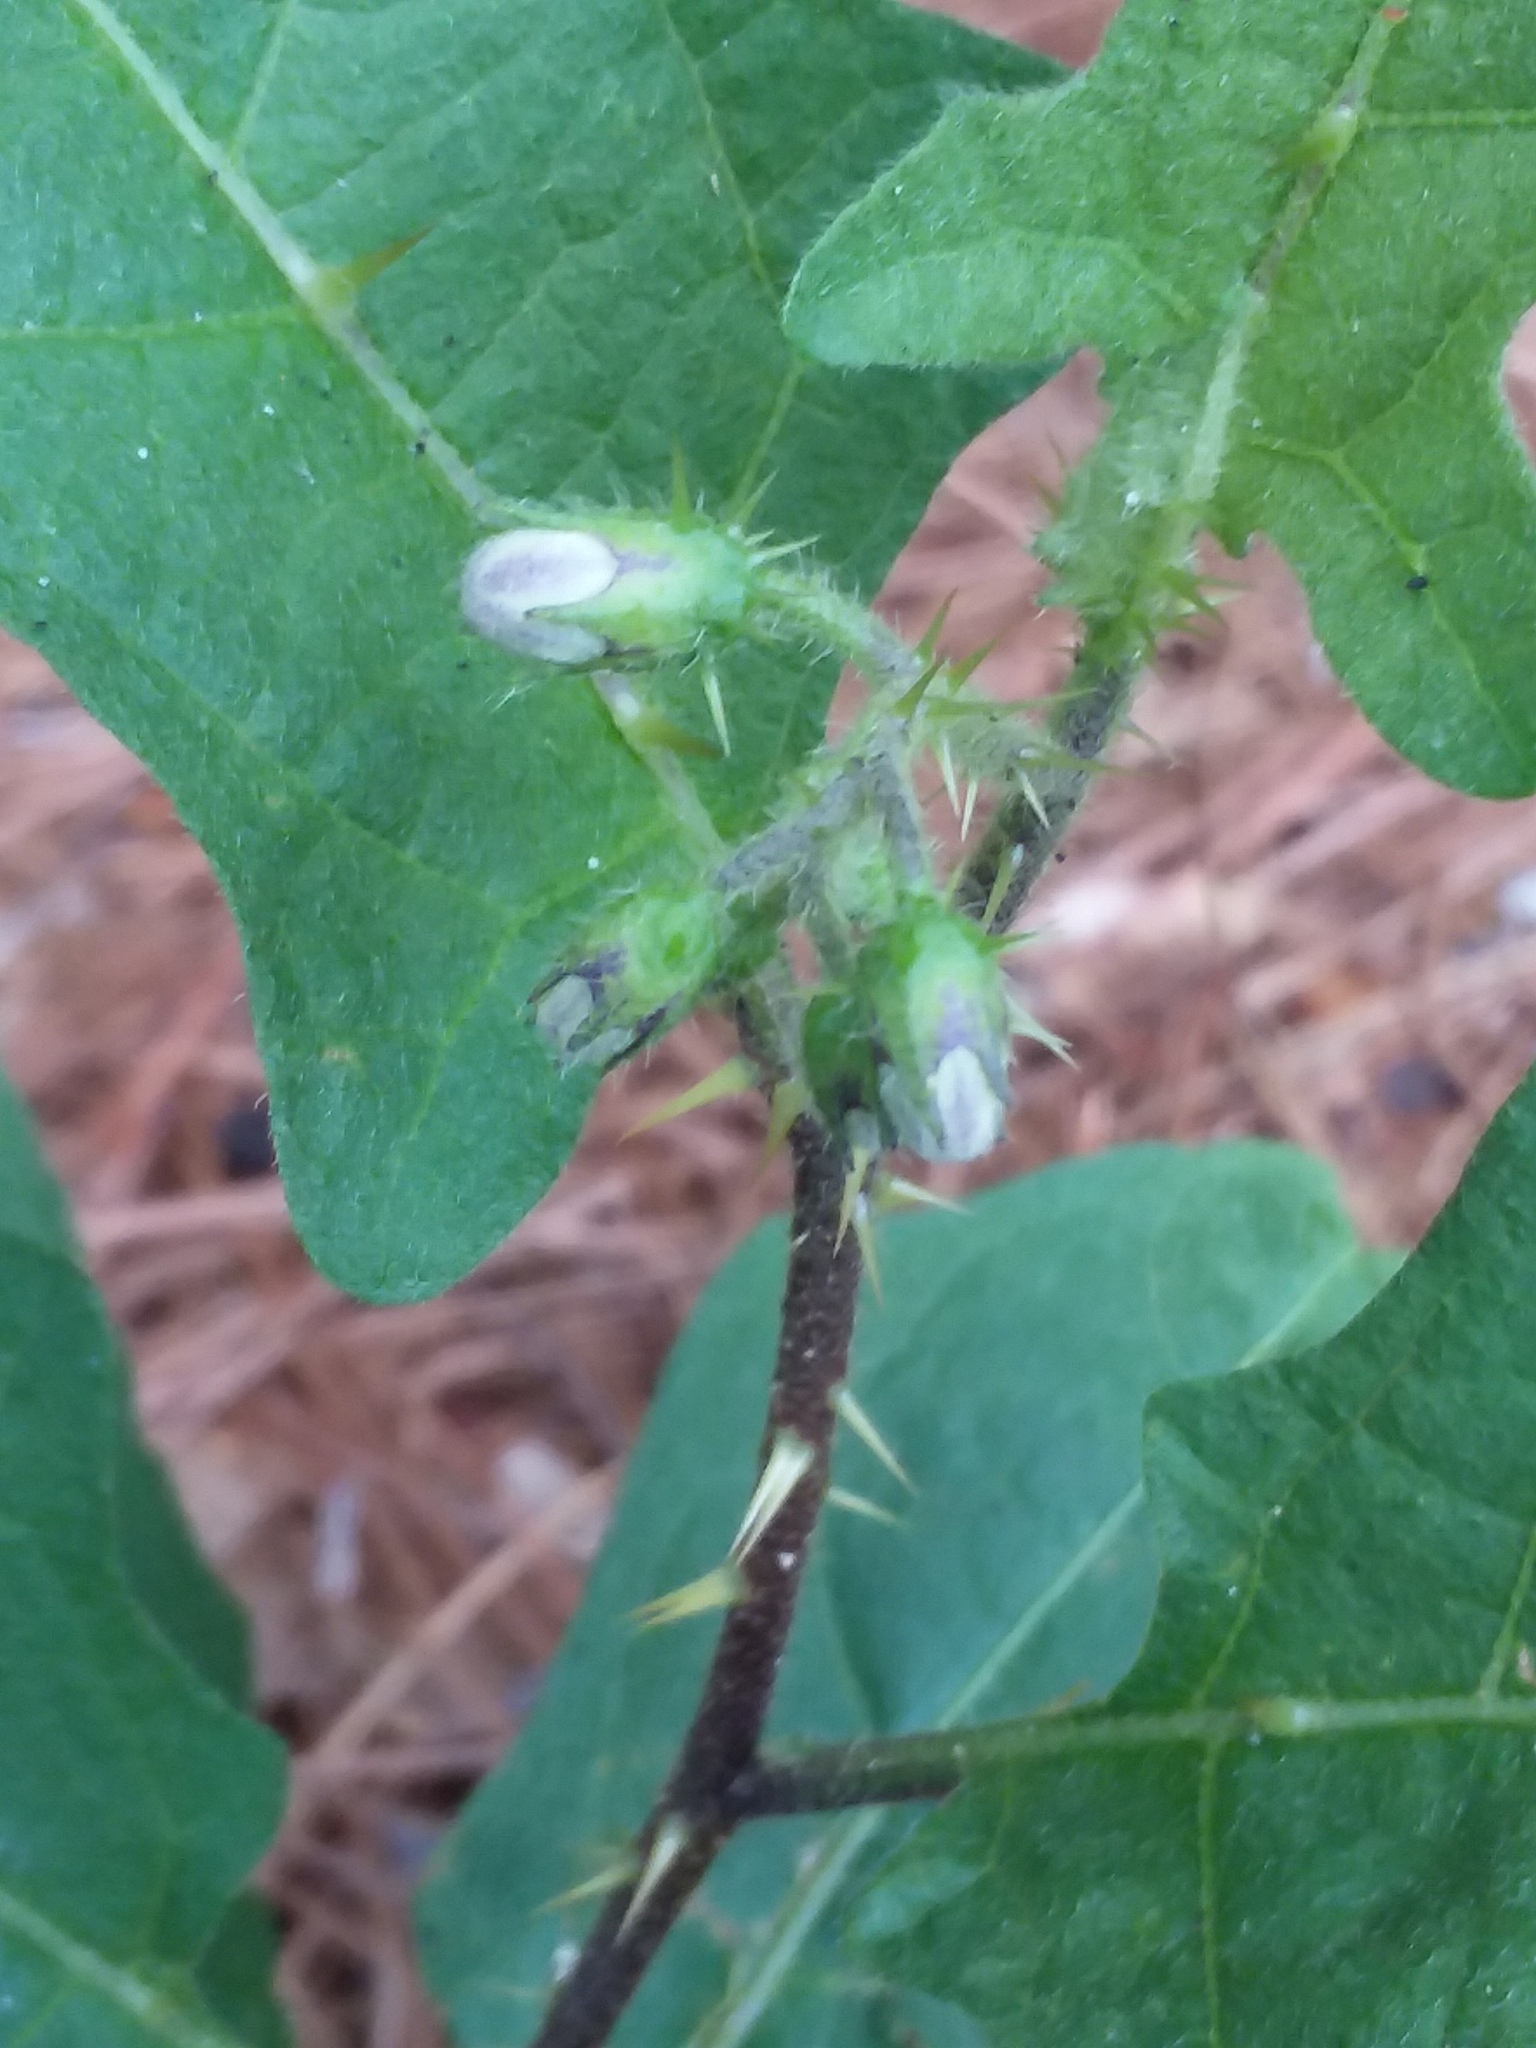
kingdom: Plantae
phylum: Tracheophyta
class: Magnoliopsida
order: Solanales
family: Solanaceae
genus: Solanum
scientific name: Solanum carolinense
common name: Horse-nettle
